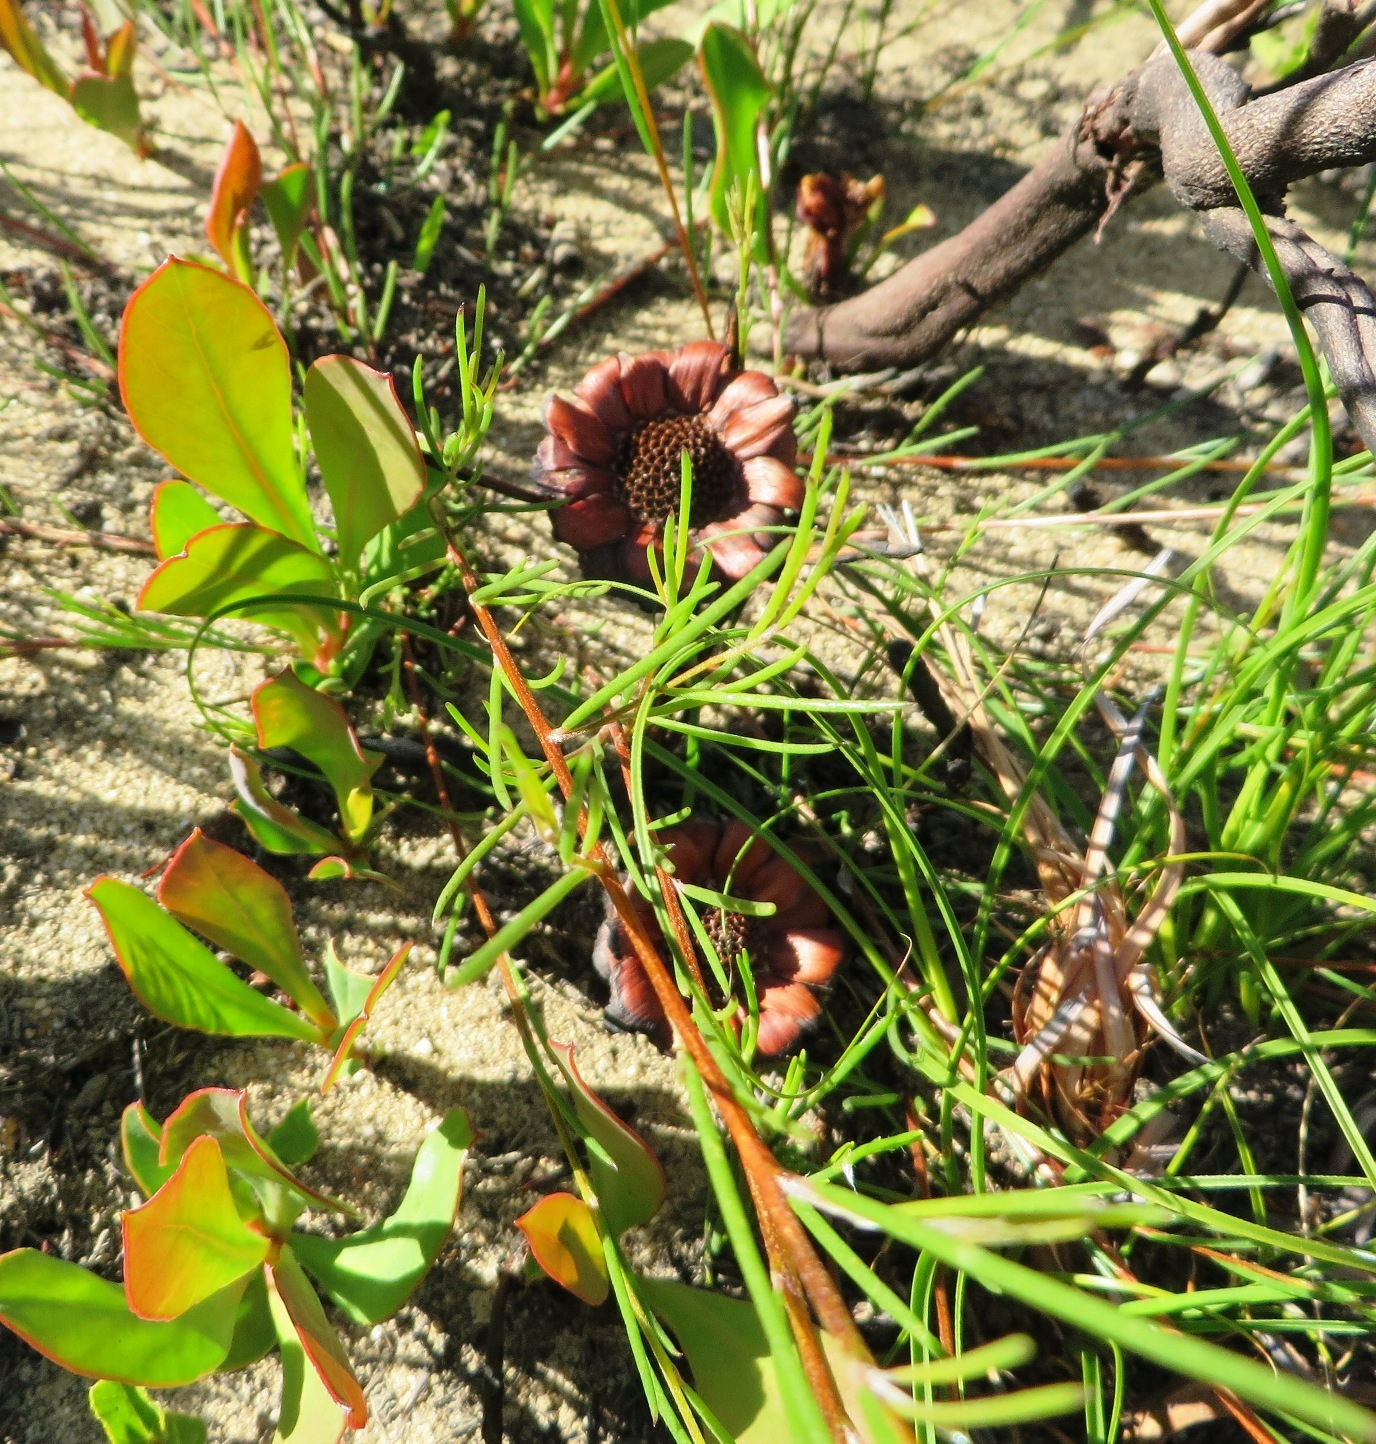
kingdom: Plantae
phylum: Tracheophyta
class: Magnoliopsida
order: Proteales
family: Proteaceae
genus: Protea
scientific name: Protea acaulos
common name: Common ground sugarbush
